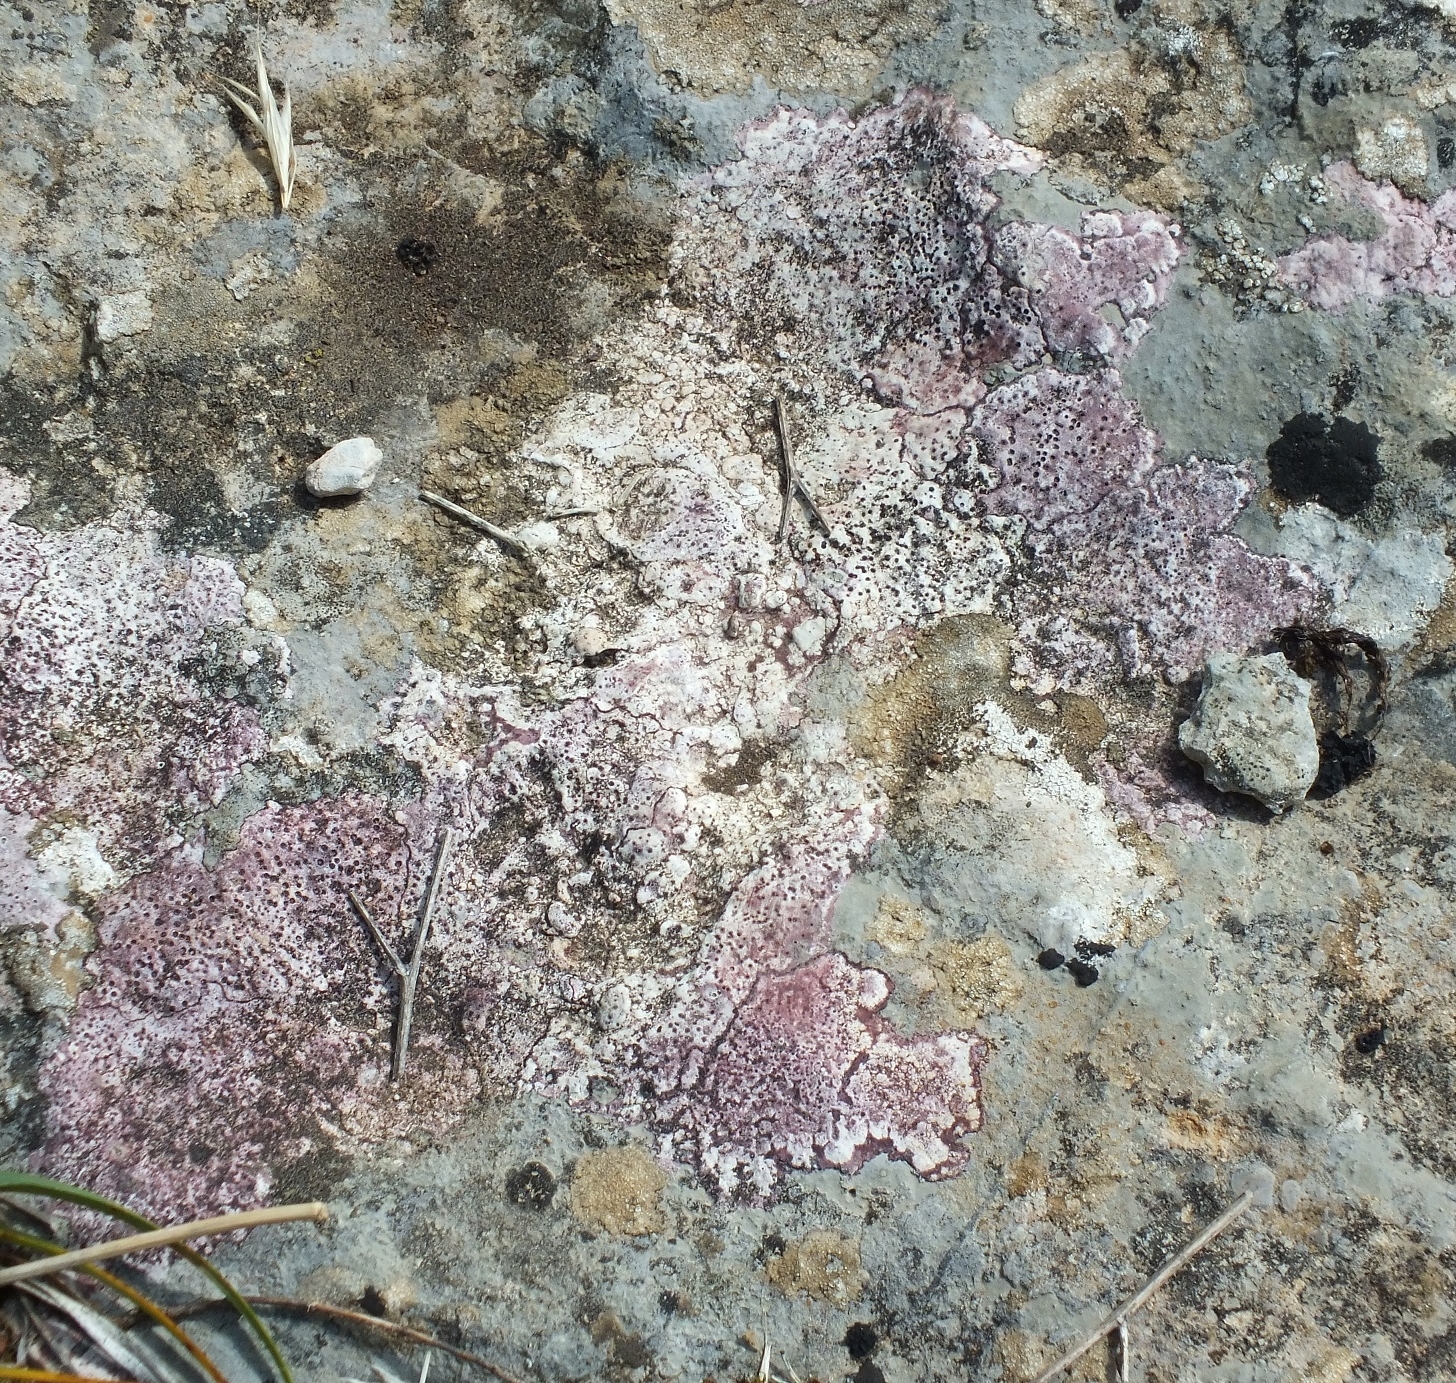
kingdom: Fungi
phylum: Ascomycota
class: Eurotiomycetes
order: Verrucariales
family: Verrucariaceae
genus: Bagliettoa
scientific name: Bagliettoa marmorea
